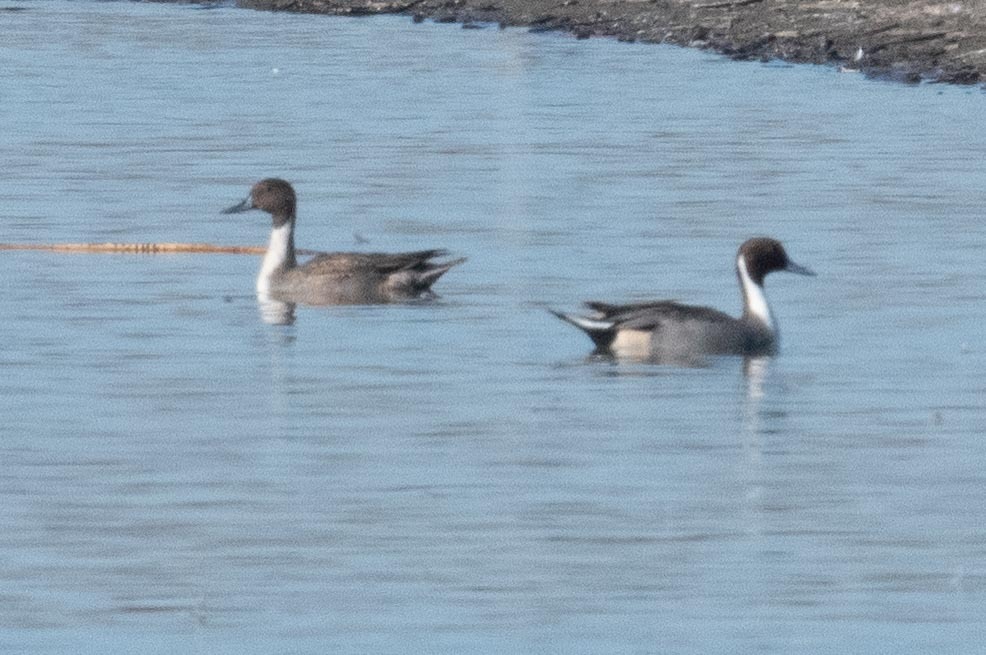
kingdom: Animalia
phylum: Chordata
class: Aves
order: Anseriformes
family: Anatidae
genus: Anas
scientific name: Anas acuta
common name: Northern pintail
